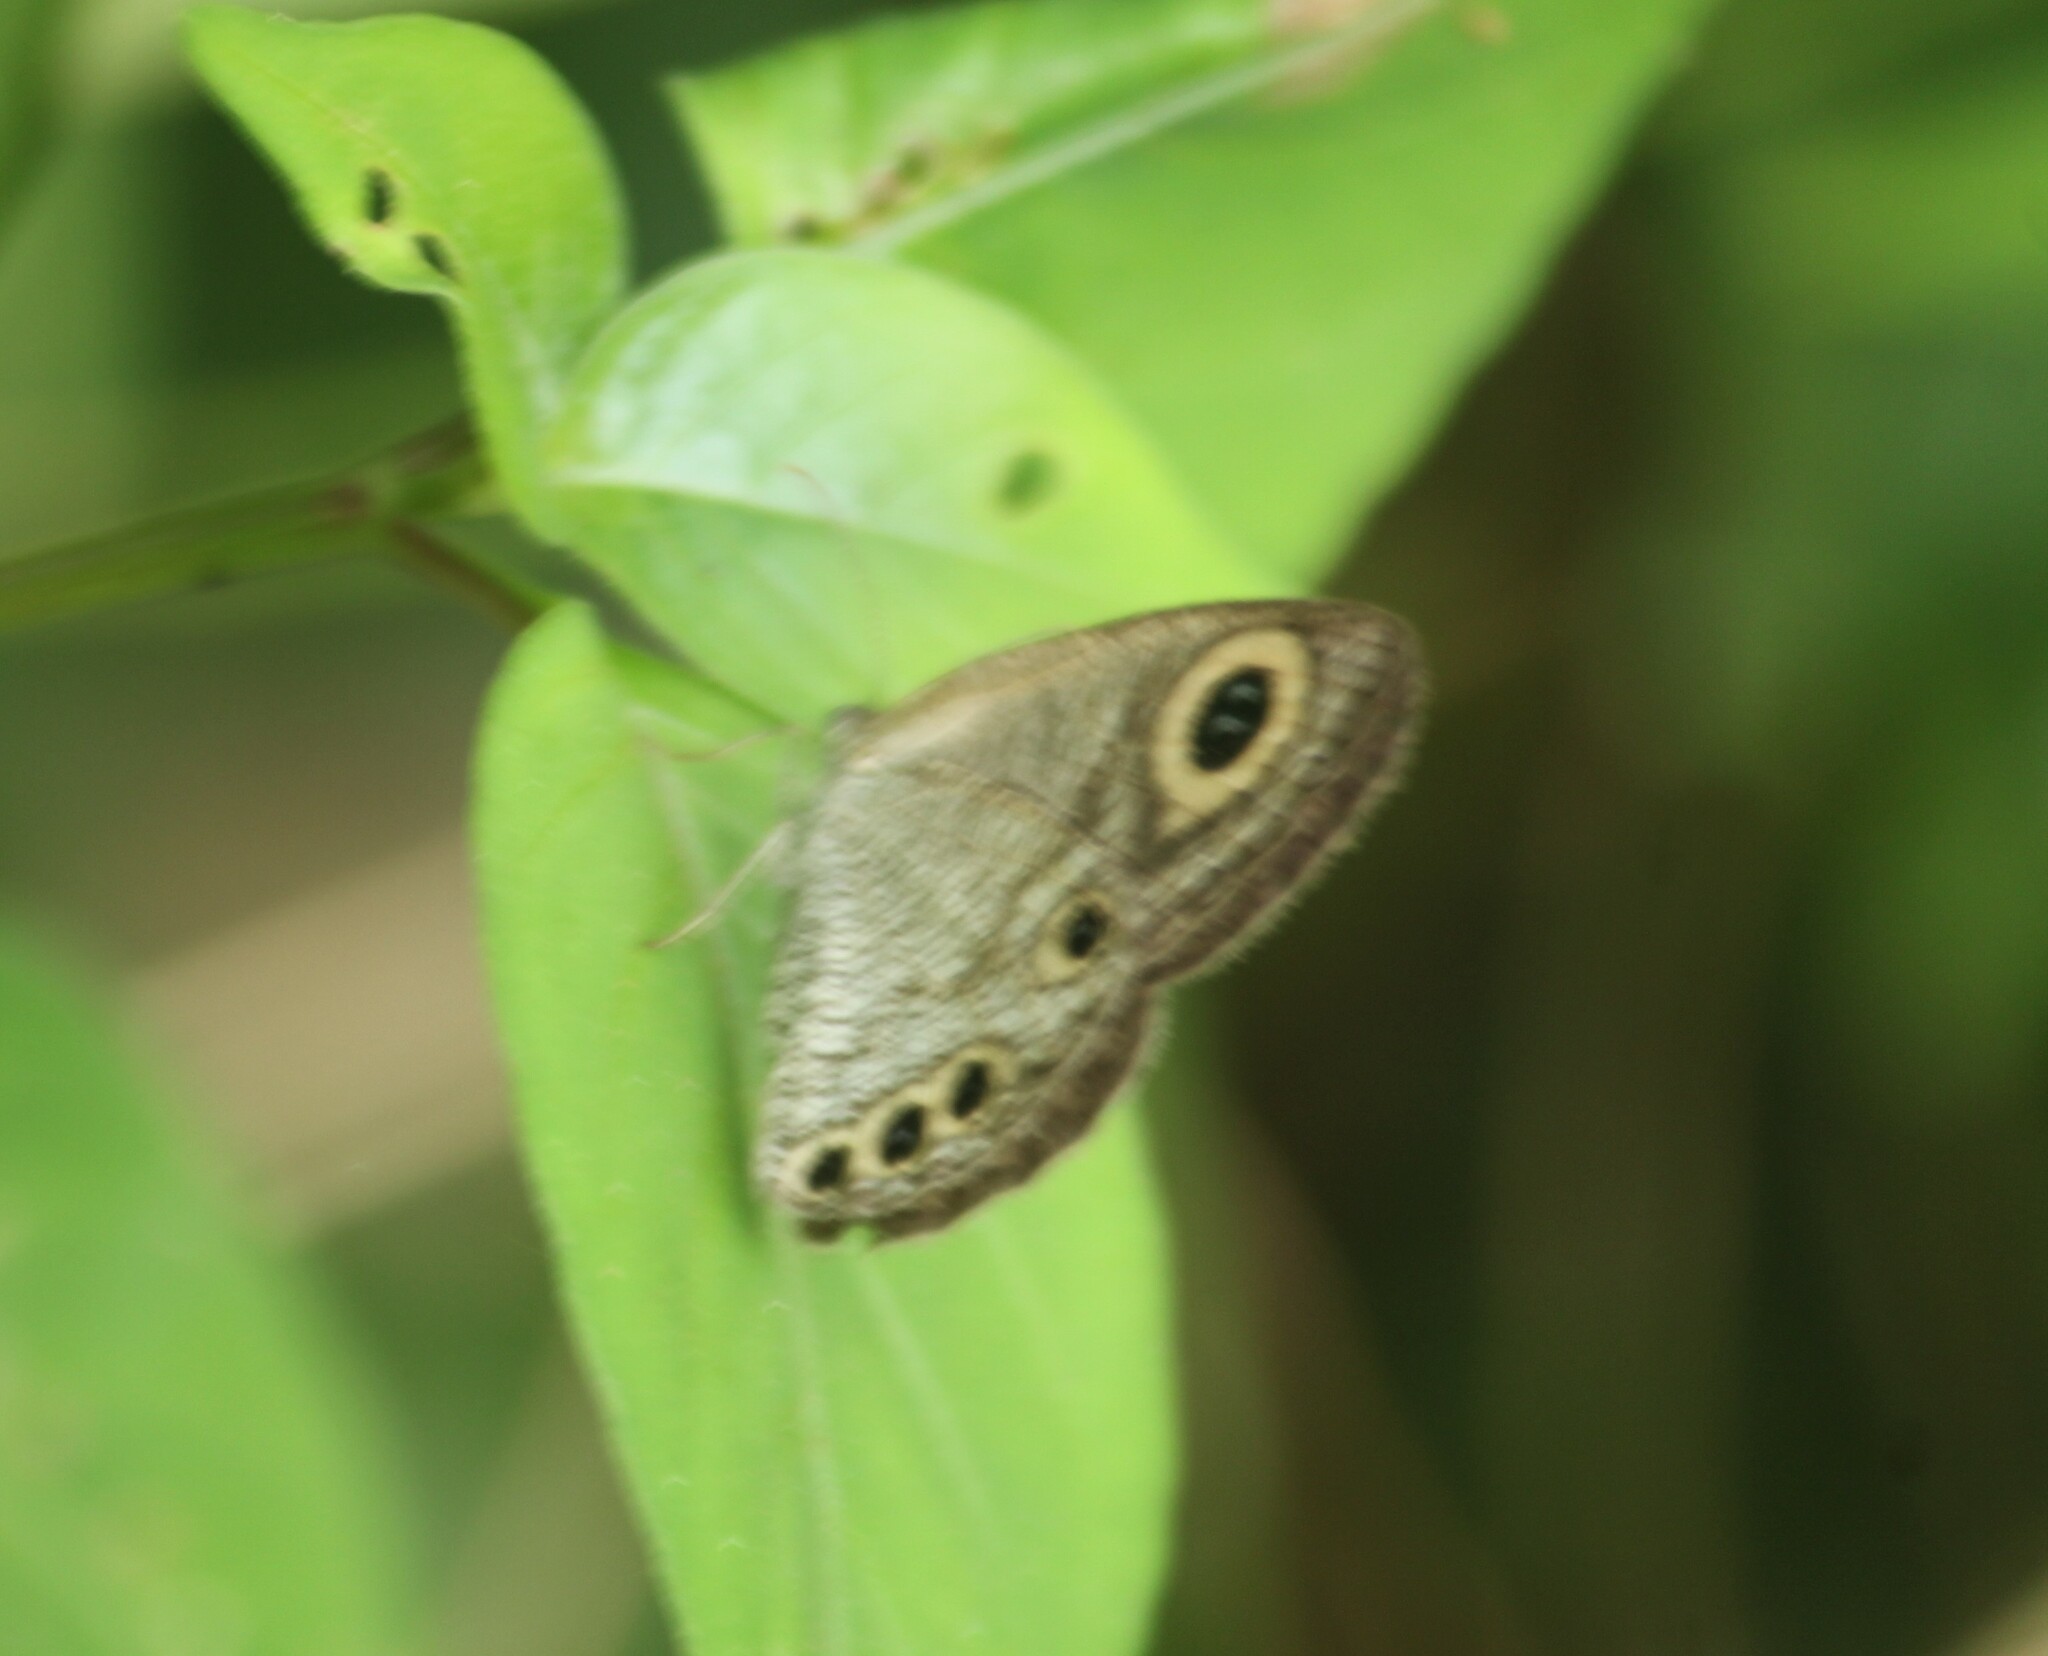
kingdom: Animalia
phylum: Arthropoda
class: Insecta
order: Lepidoptera
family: Nymphalidae
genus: Ypthima
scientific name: Ypthima huebneri
